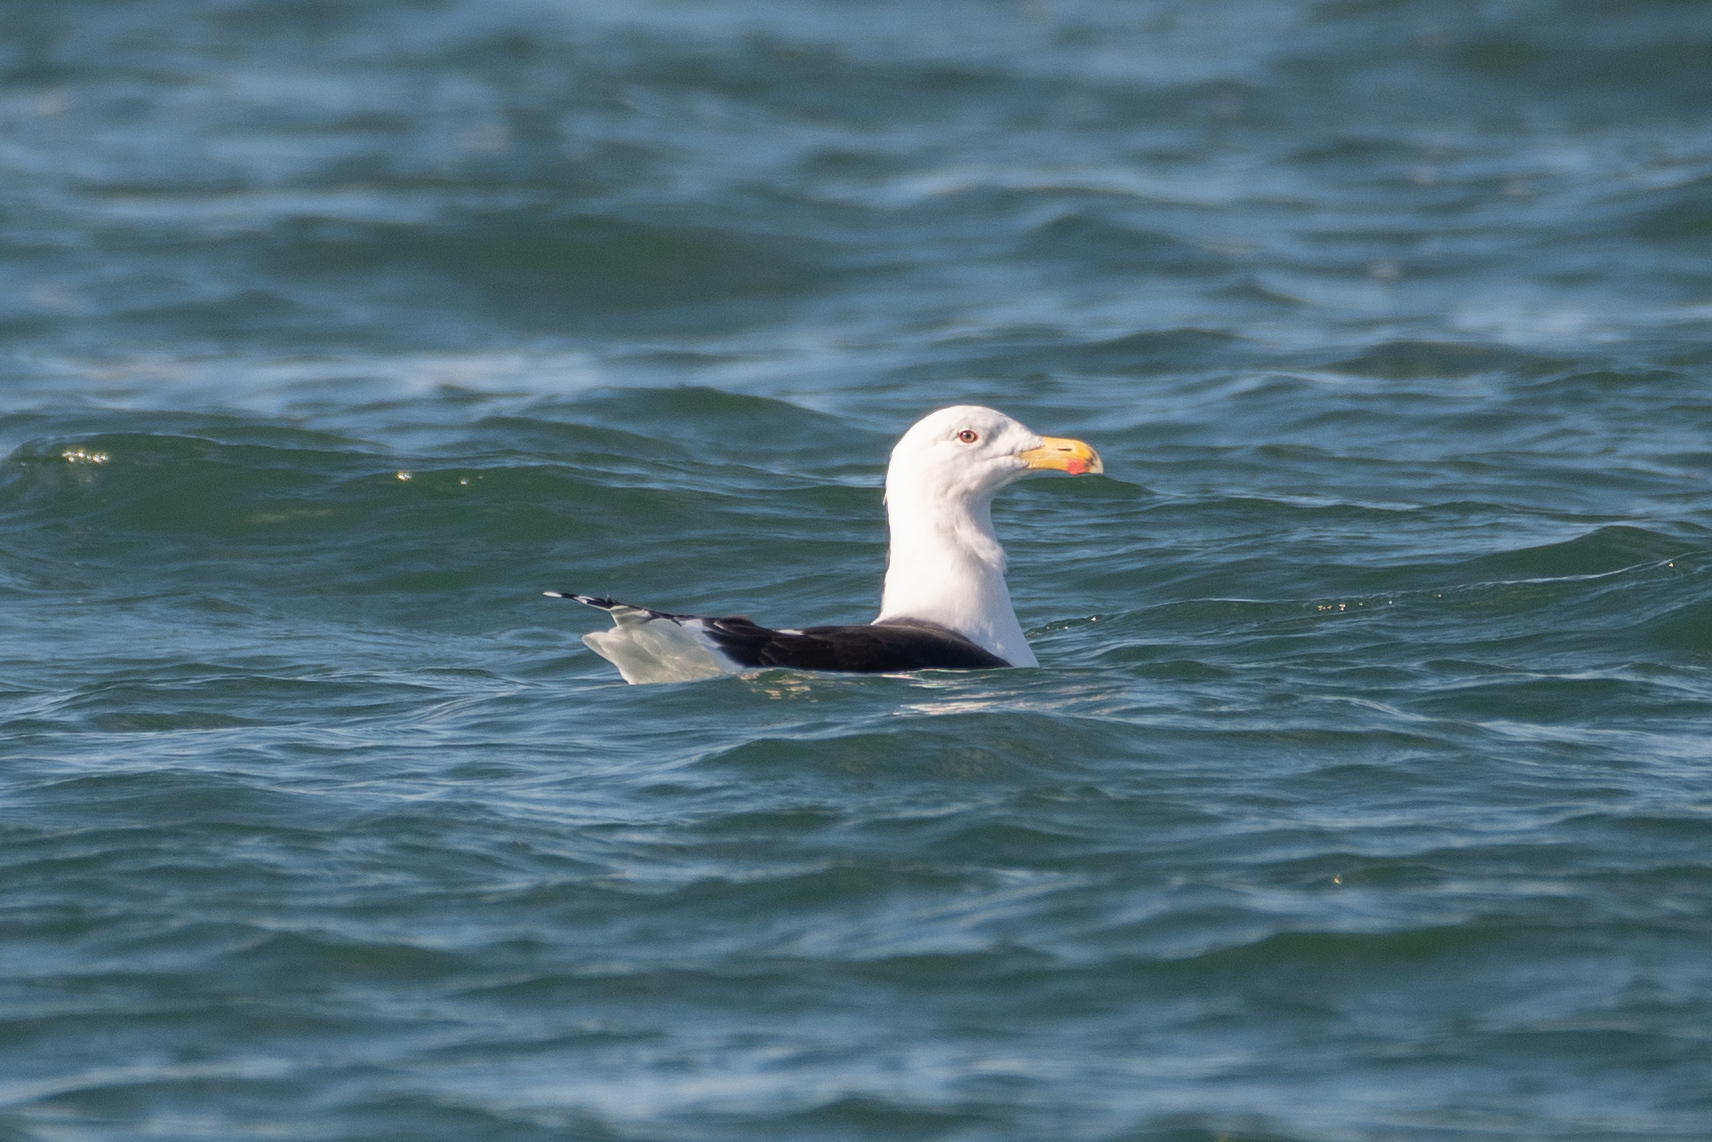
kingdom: Animalia
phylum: Chordata
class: Aves
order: Charadriiformes
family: Laridae
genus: Larus
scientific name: Larus marinus
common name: Great black-backed gull
